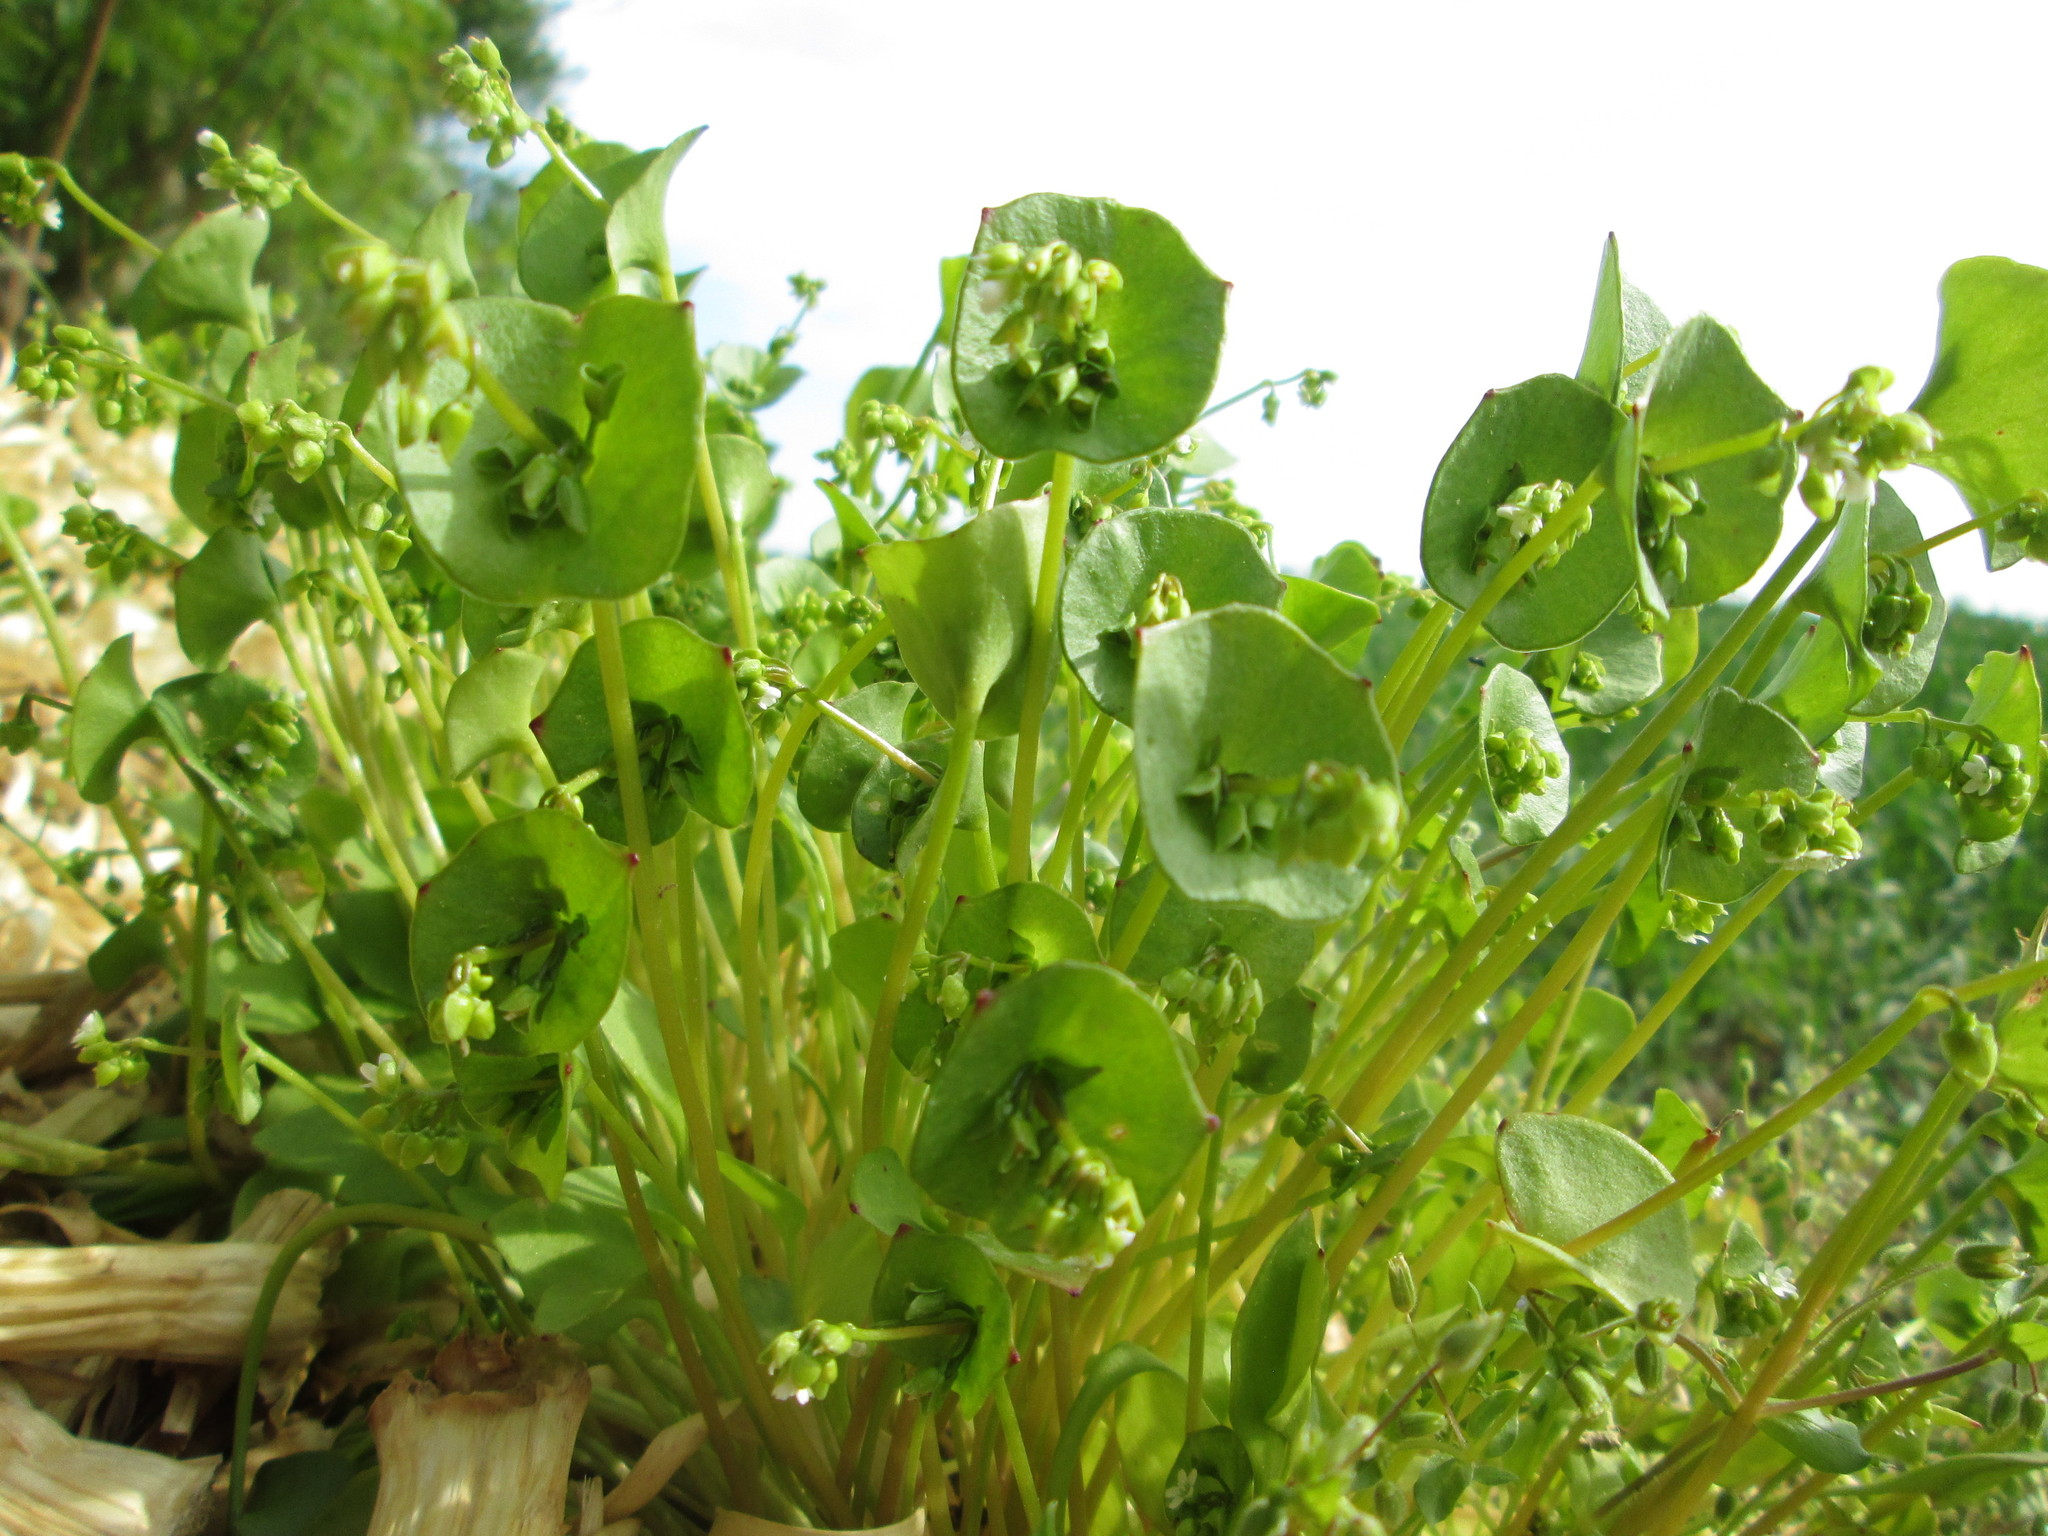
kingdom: Plantae
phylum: Tracheophyta
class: Magnoliopsida
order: Caryophyllales
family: Montiaceae
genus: Claytonia
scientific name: Claytonia perfoliata
